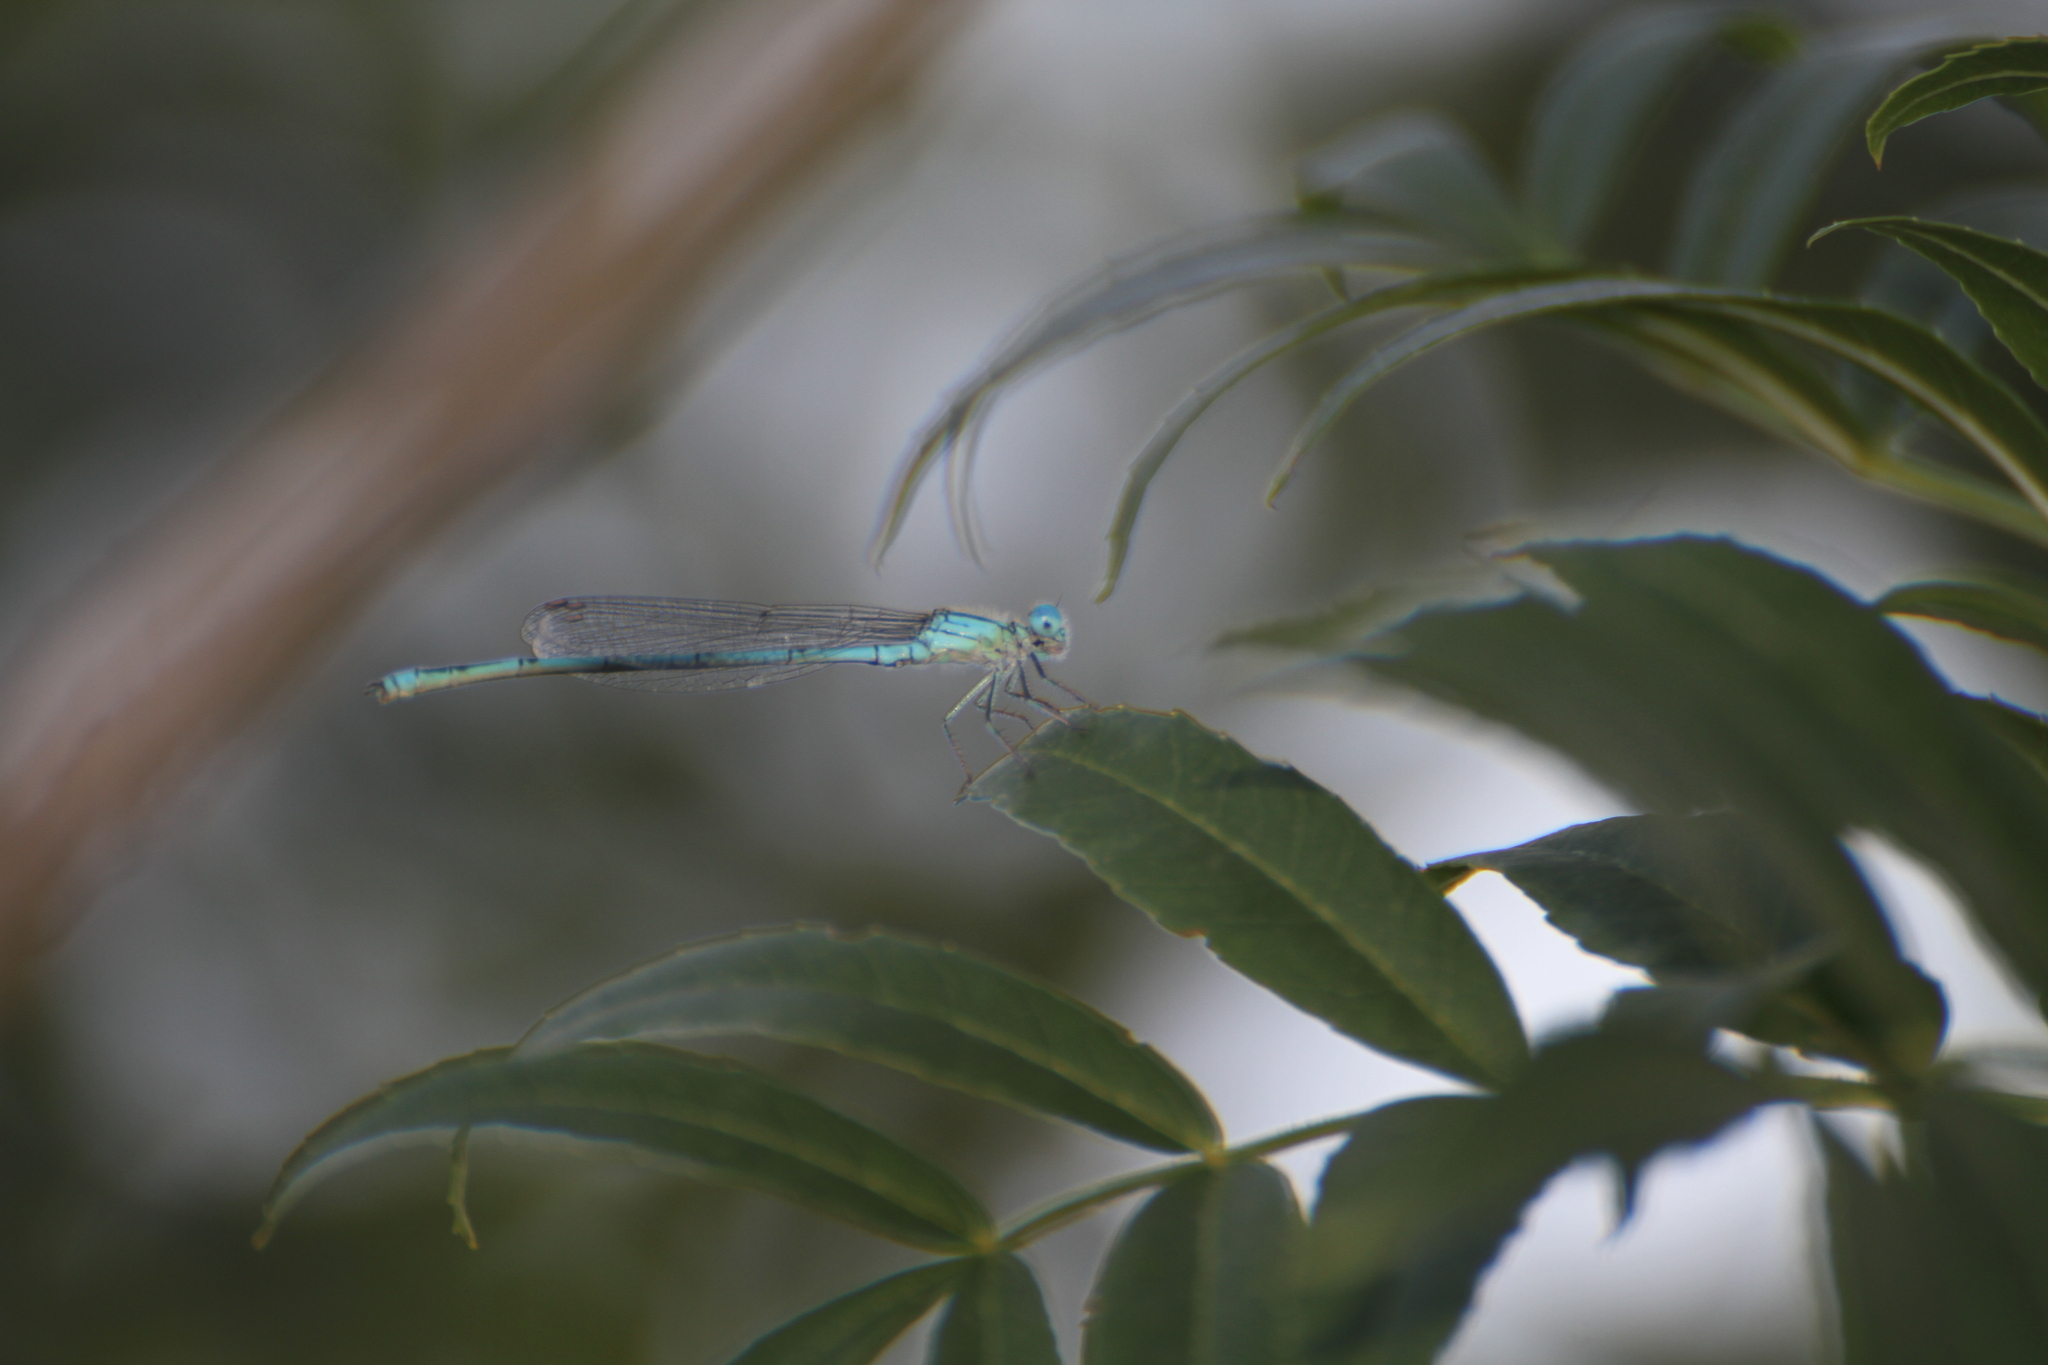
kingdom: Animalia
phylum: Arthropoda
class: Insecta
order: Odonata
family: Coenagrionidae
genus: Erythromma
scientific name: Erythromma lindenii
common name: Blue-eye
